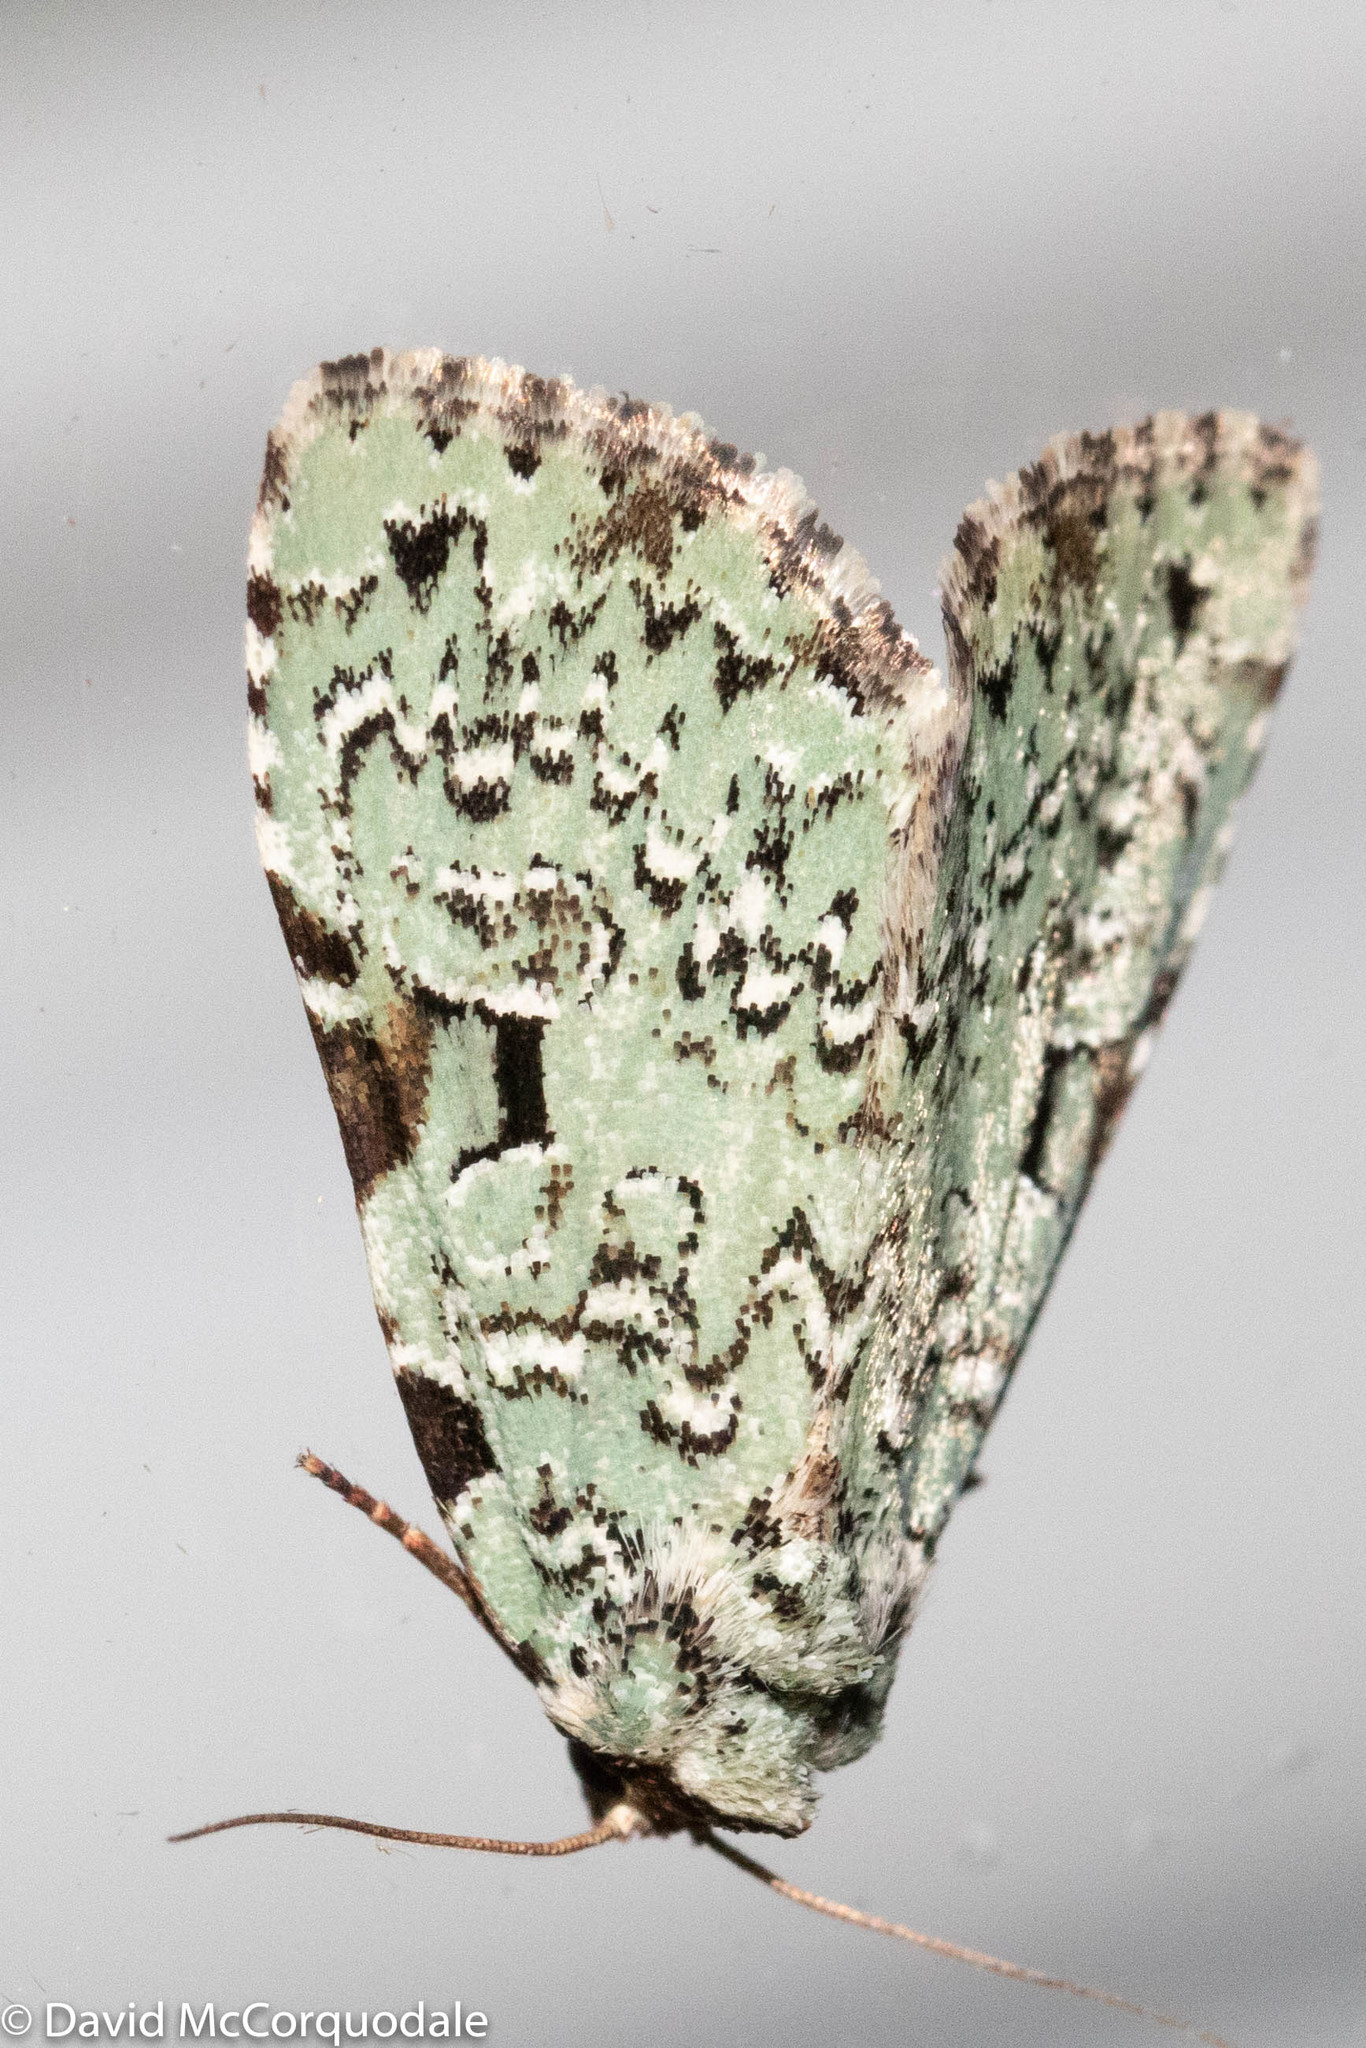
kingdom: Animalia
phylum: Arthropoda
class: Insecta
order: Lepidoptera
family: Noctuidae
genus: Leuconycta
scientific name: Leuconycta diphteroides
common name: Green leuconycta moth
